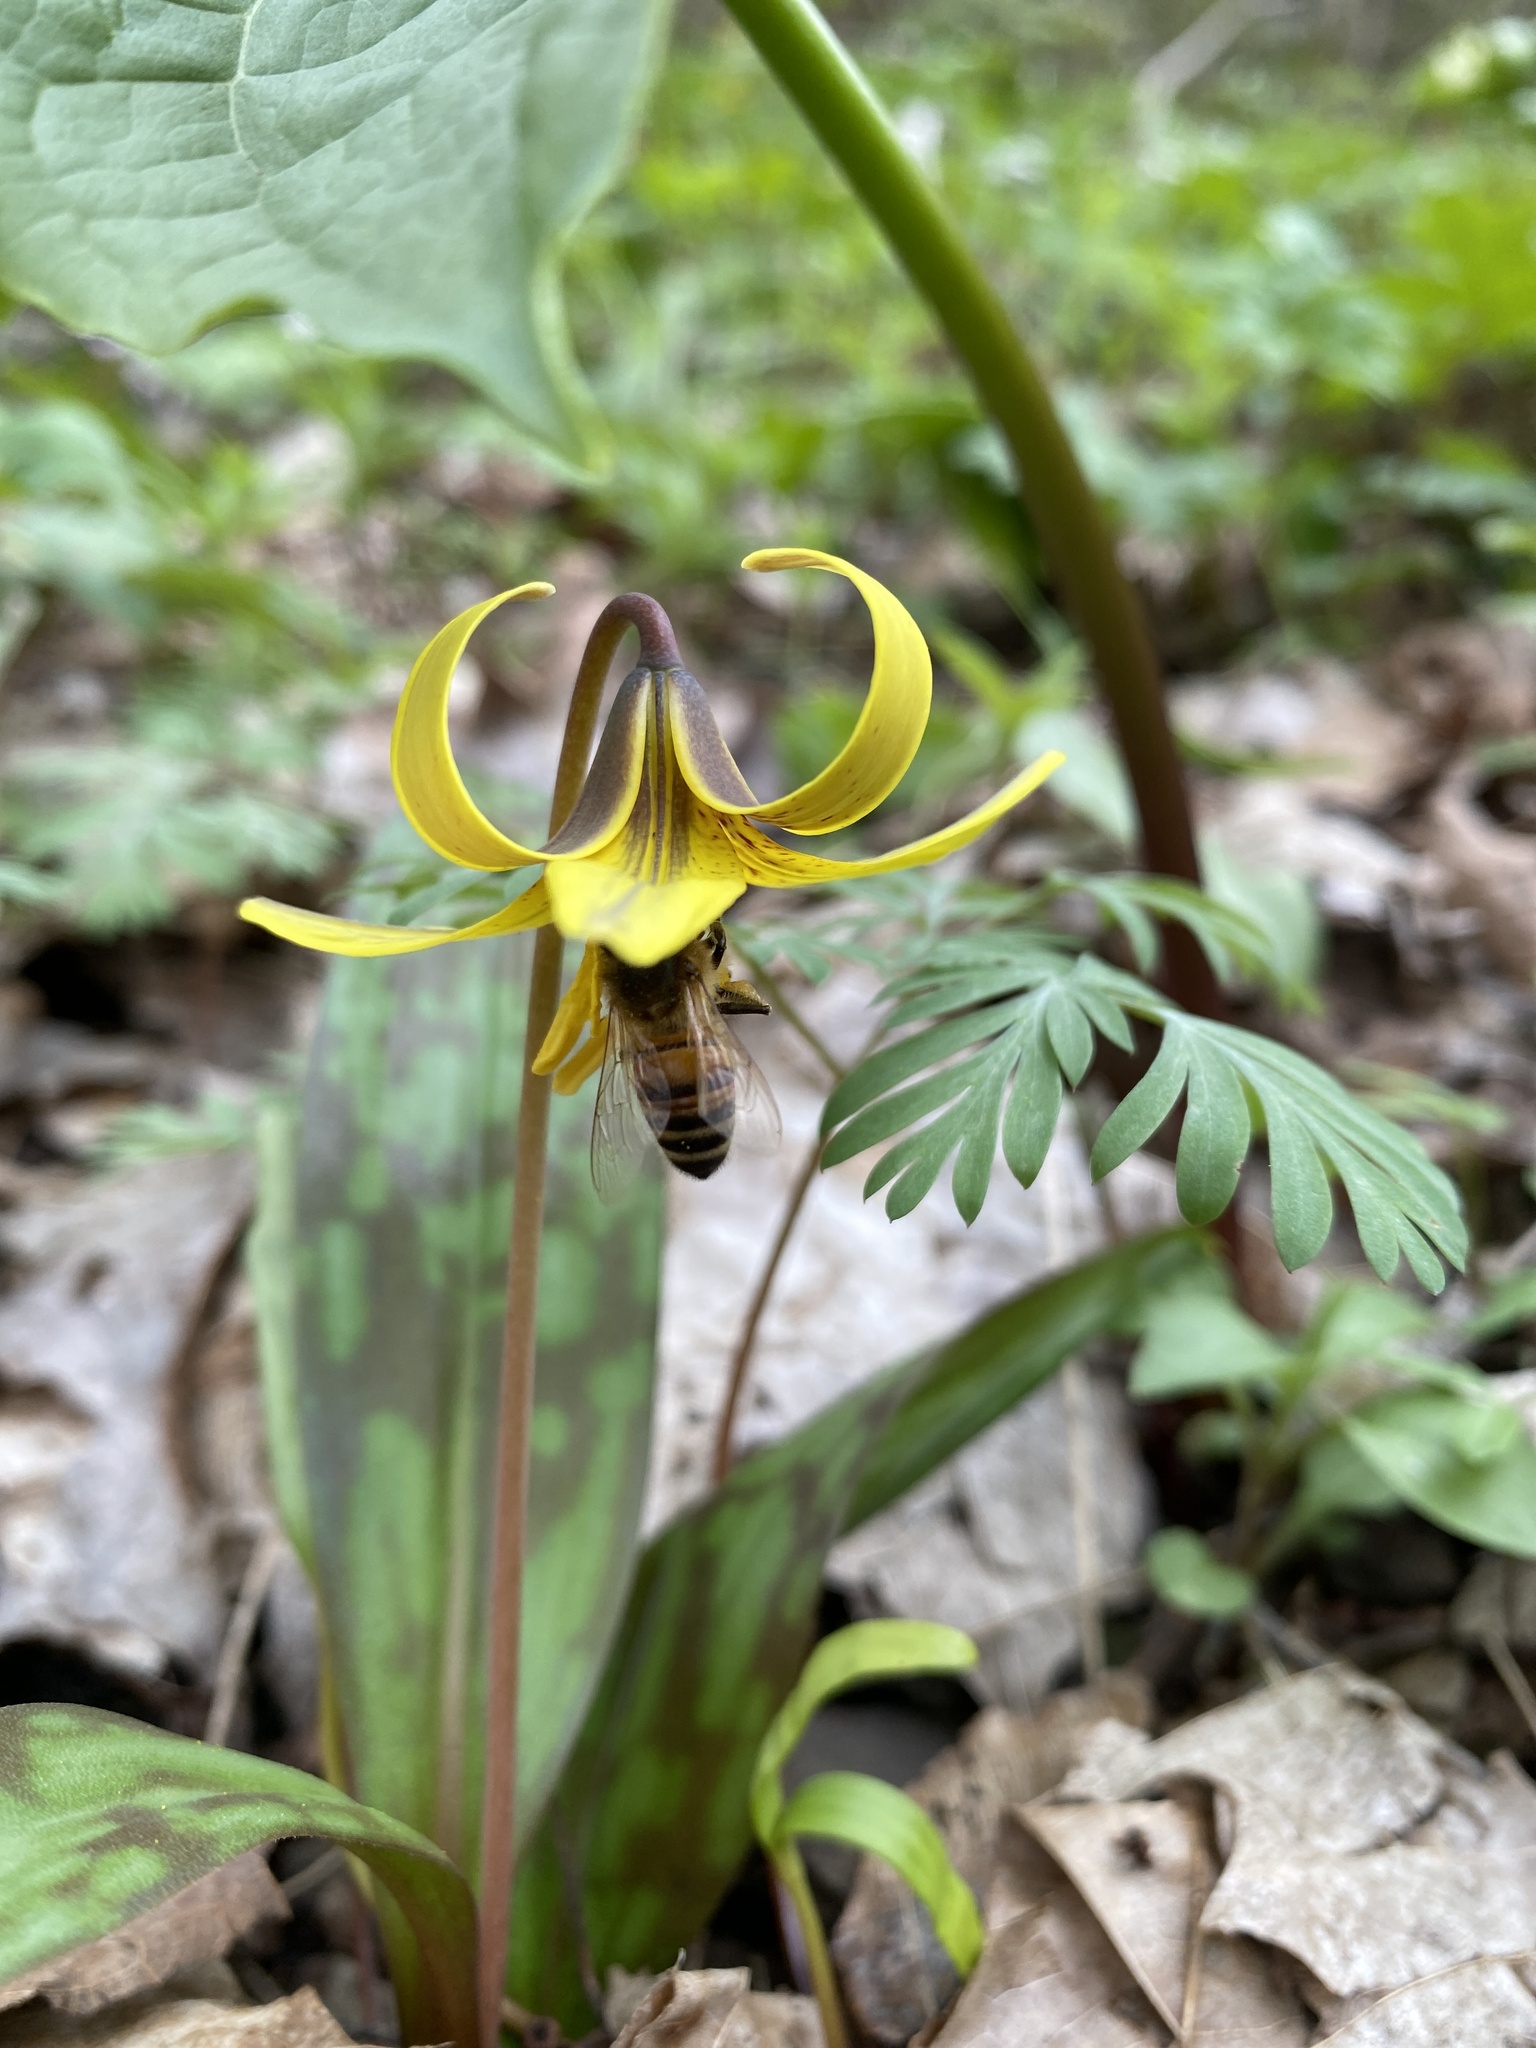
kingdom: Animalia
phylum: Arthropoda
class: Insecta
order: Hymenoptera
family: Apidae
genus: Apis
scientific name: Apis mellifera
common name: Honey bee
